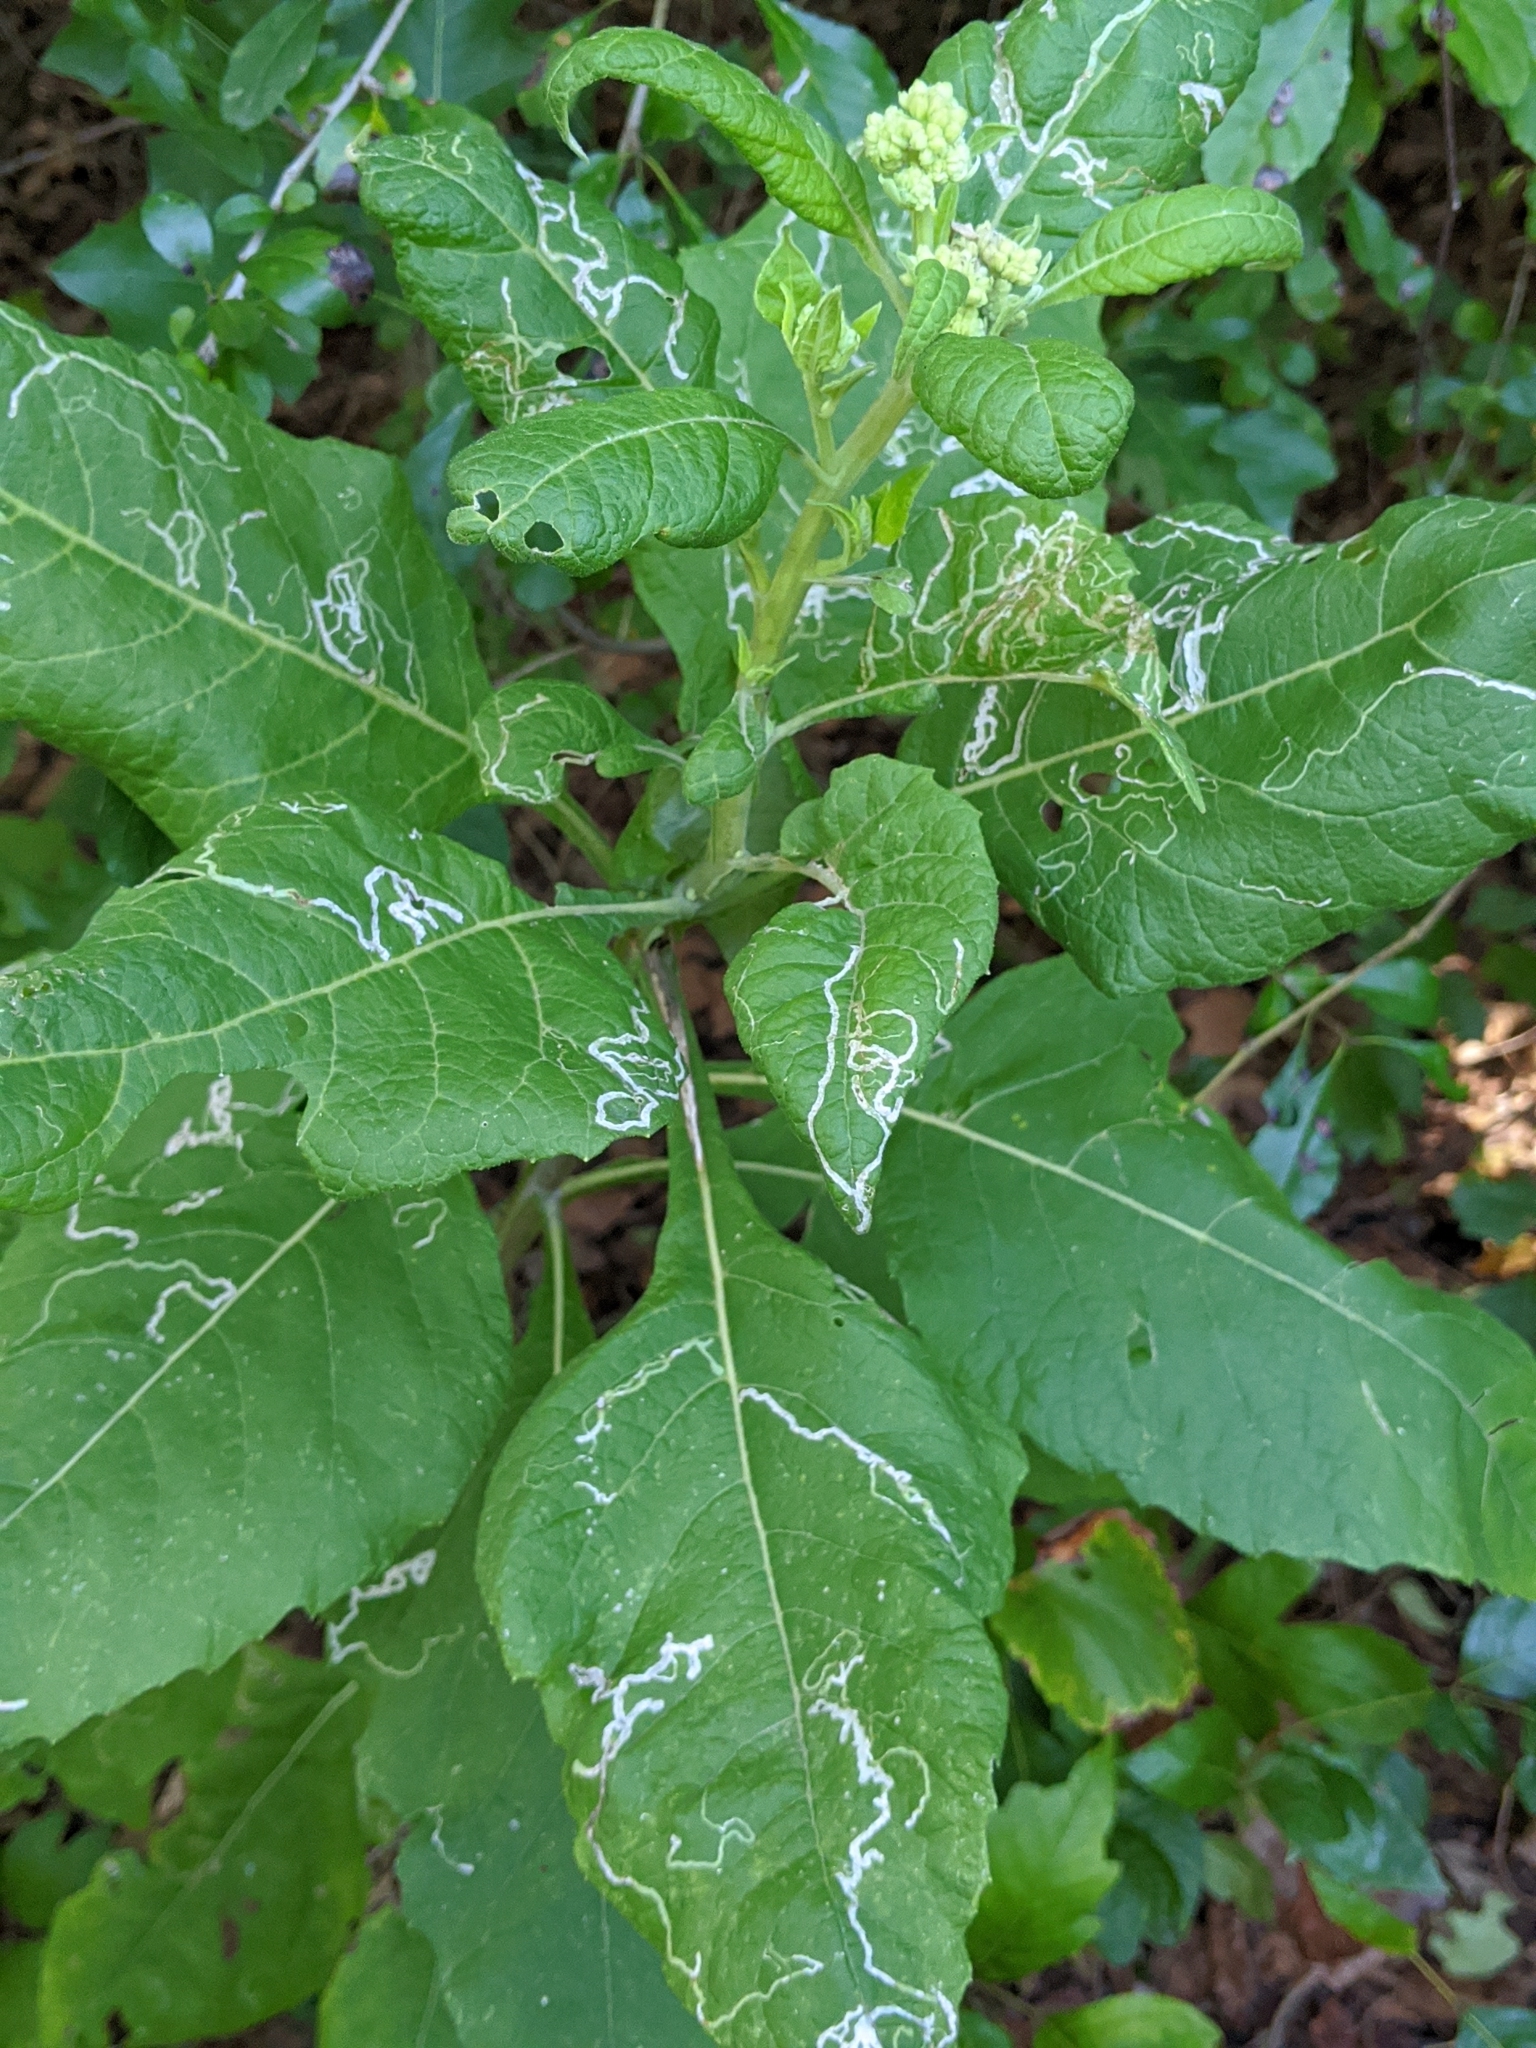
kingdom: Plantae
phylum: Tracheophyta
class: Magnoliopsida
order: Asterales
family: Asteraceae
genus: Verbesina
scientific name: Verbesina virginica
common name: Frostweed
